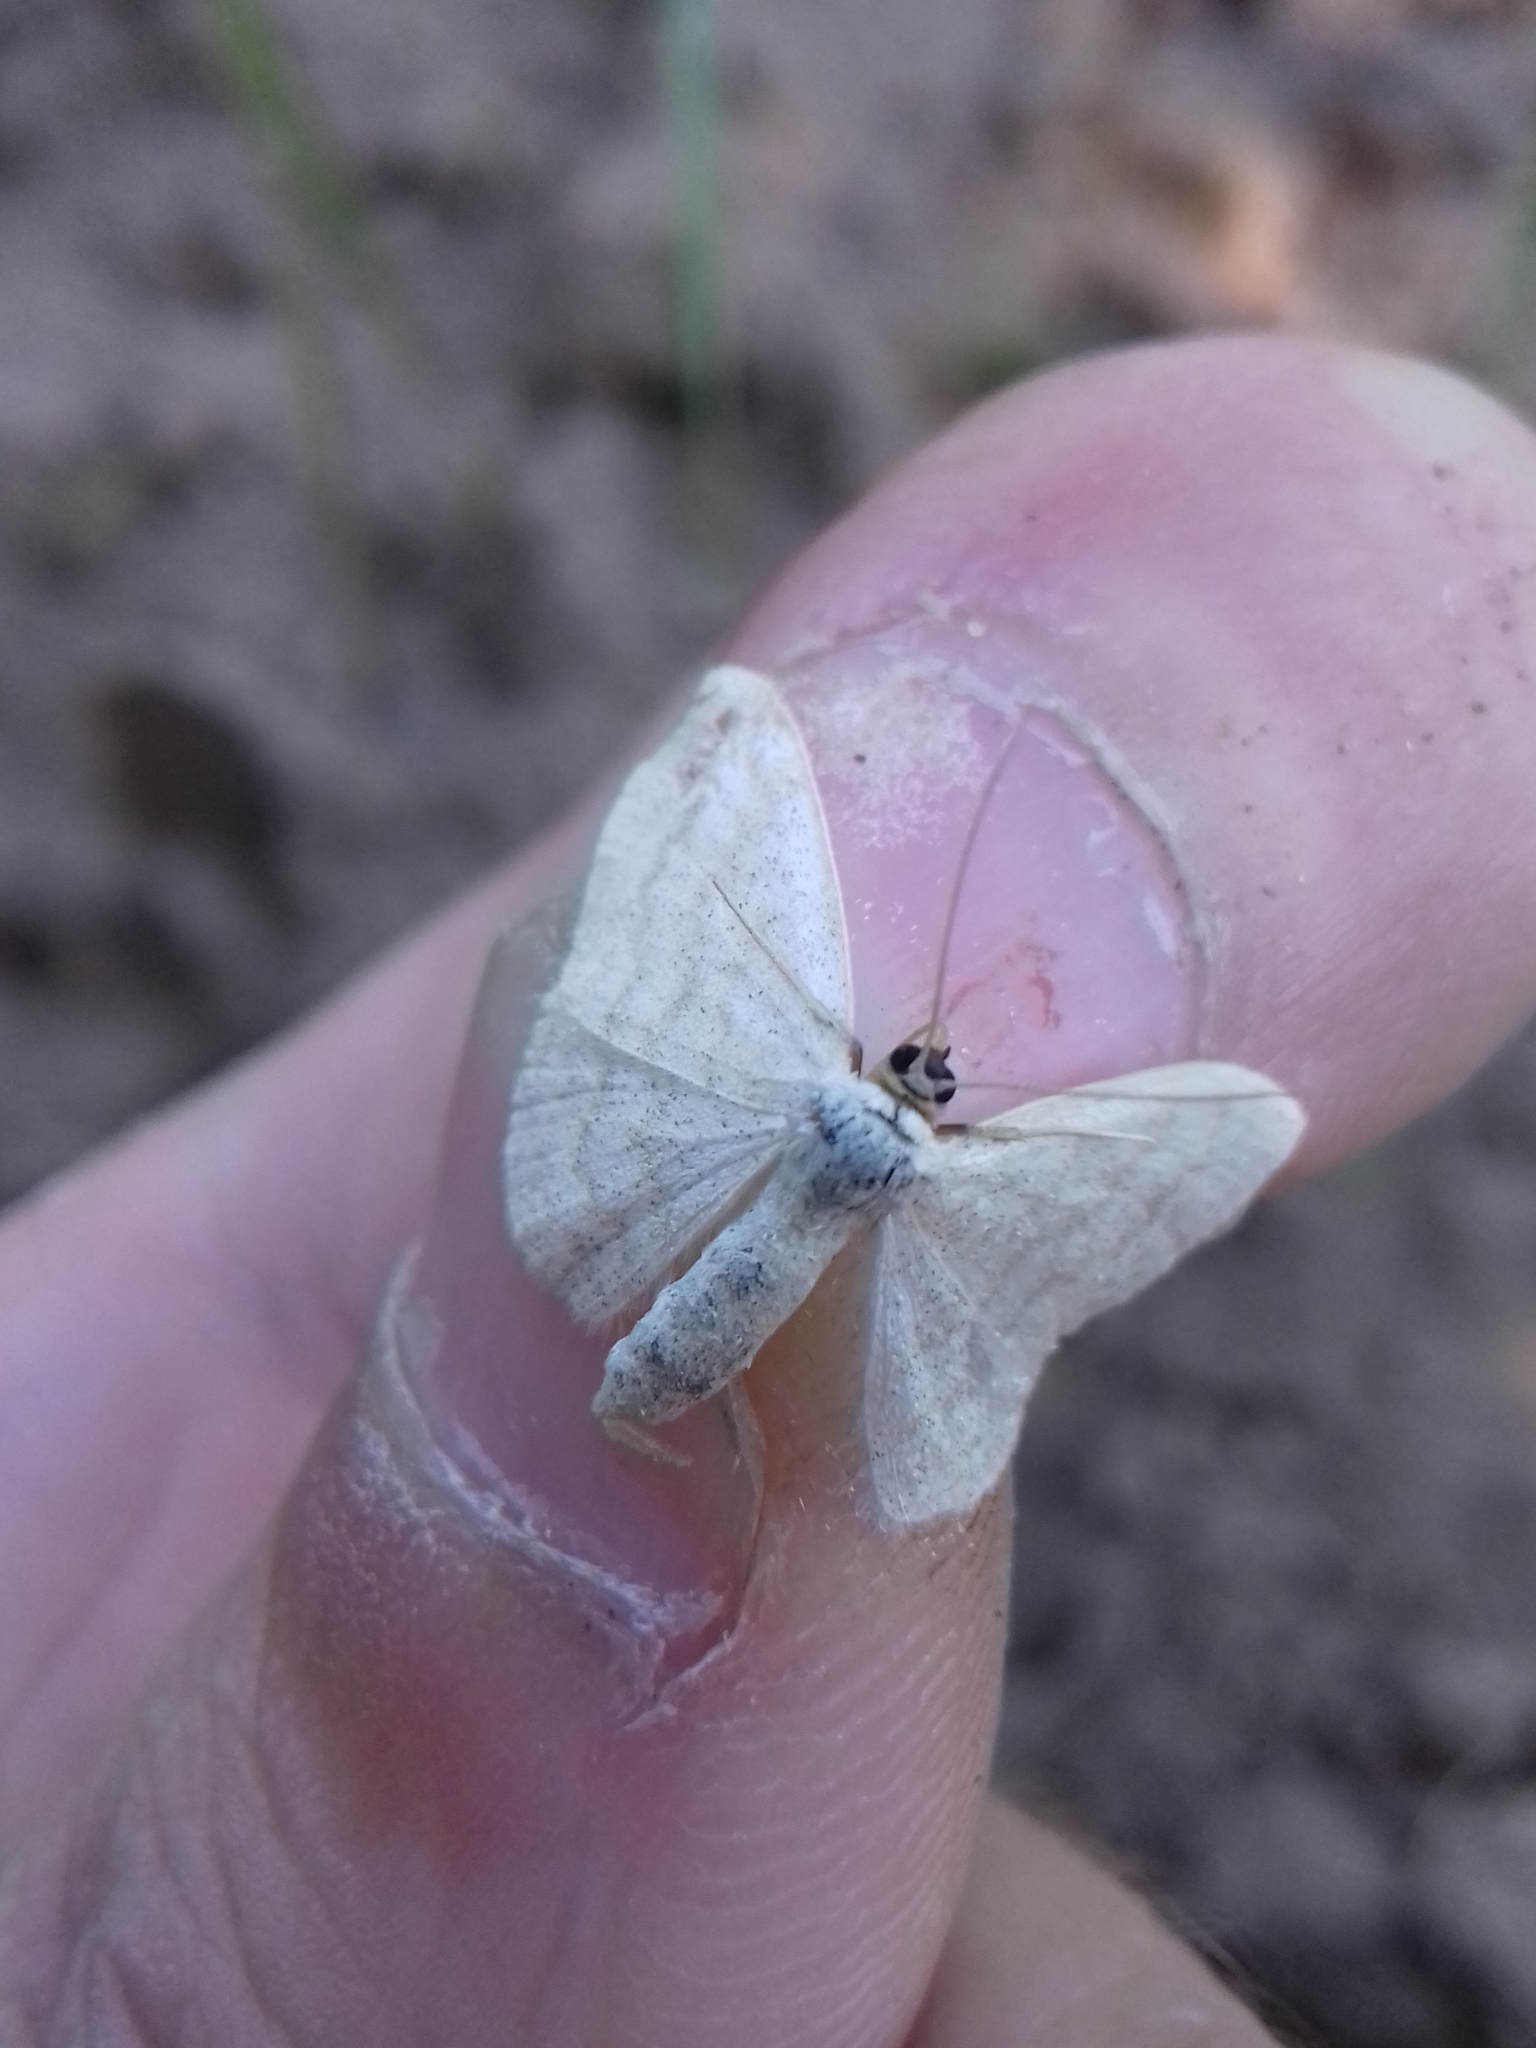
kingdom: Animalia
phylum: Arthropoda
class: Insecta
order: Lepidoptera
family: Geometridae
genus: Scopula
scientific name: Scopula floslactata
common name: Cream wave
